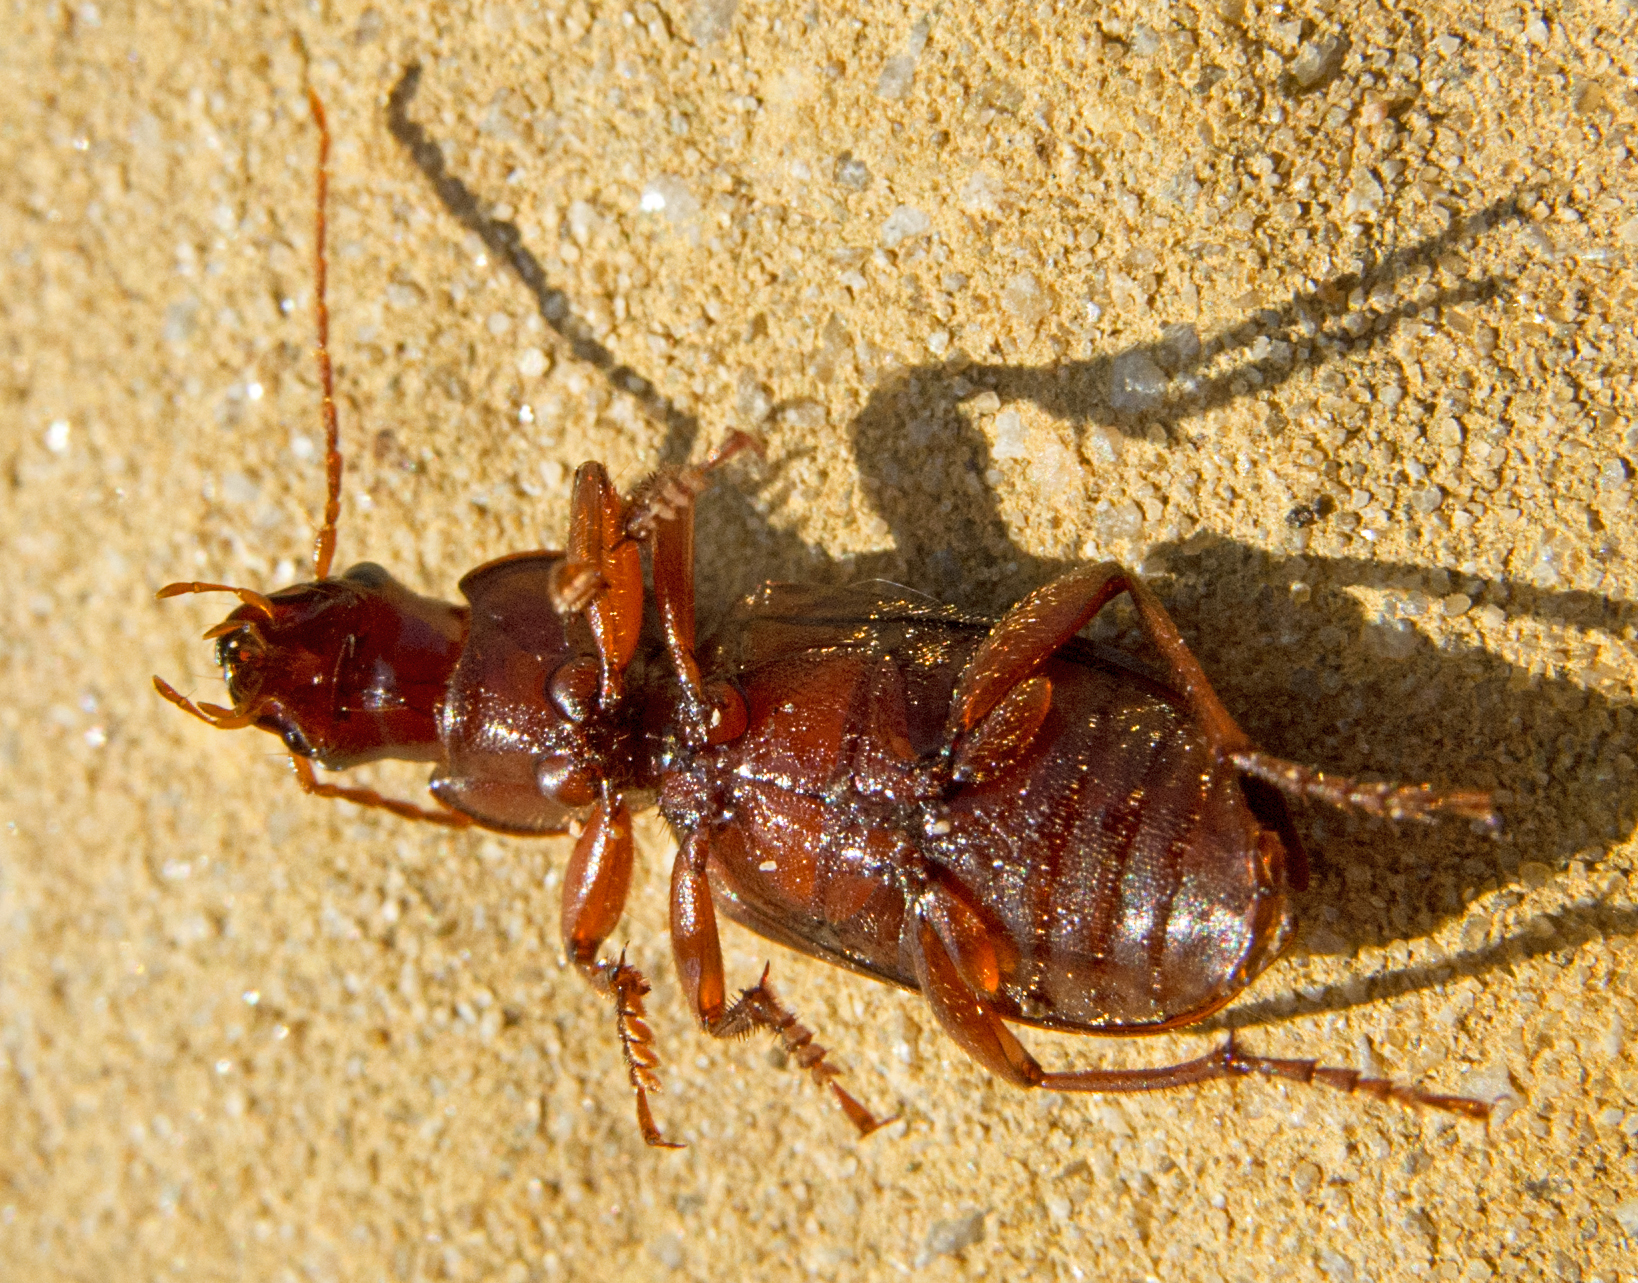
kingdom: Animalia
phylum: Arthropoda
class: Insecta
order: Coleoptera
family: Carabidae
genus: Scybalicus
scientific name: Scybalicus oblongiusculus
